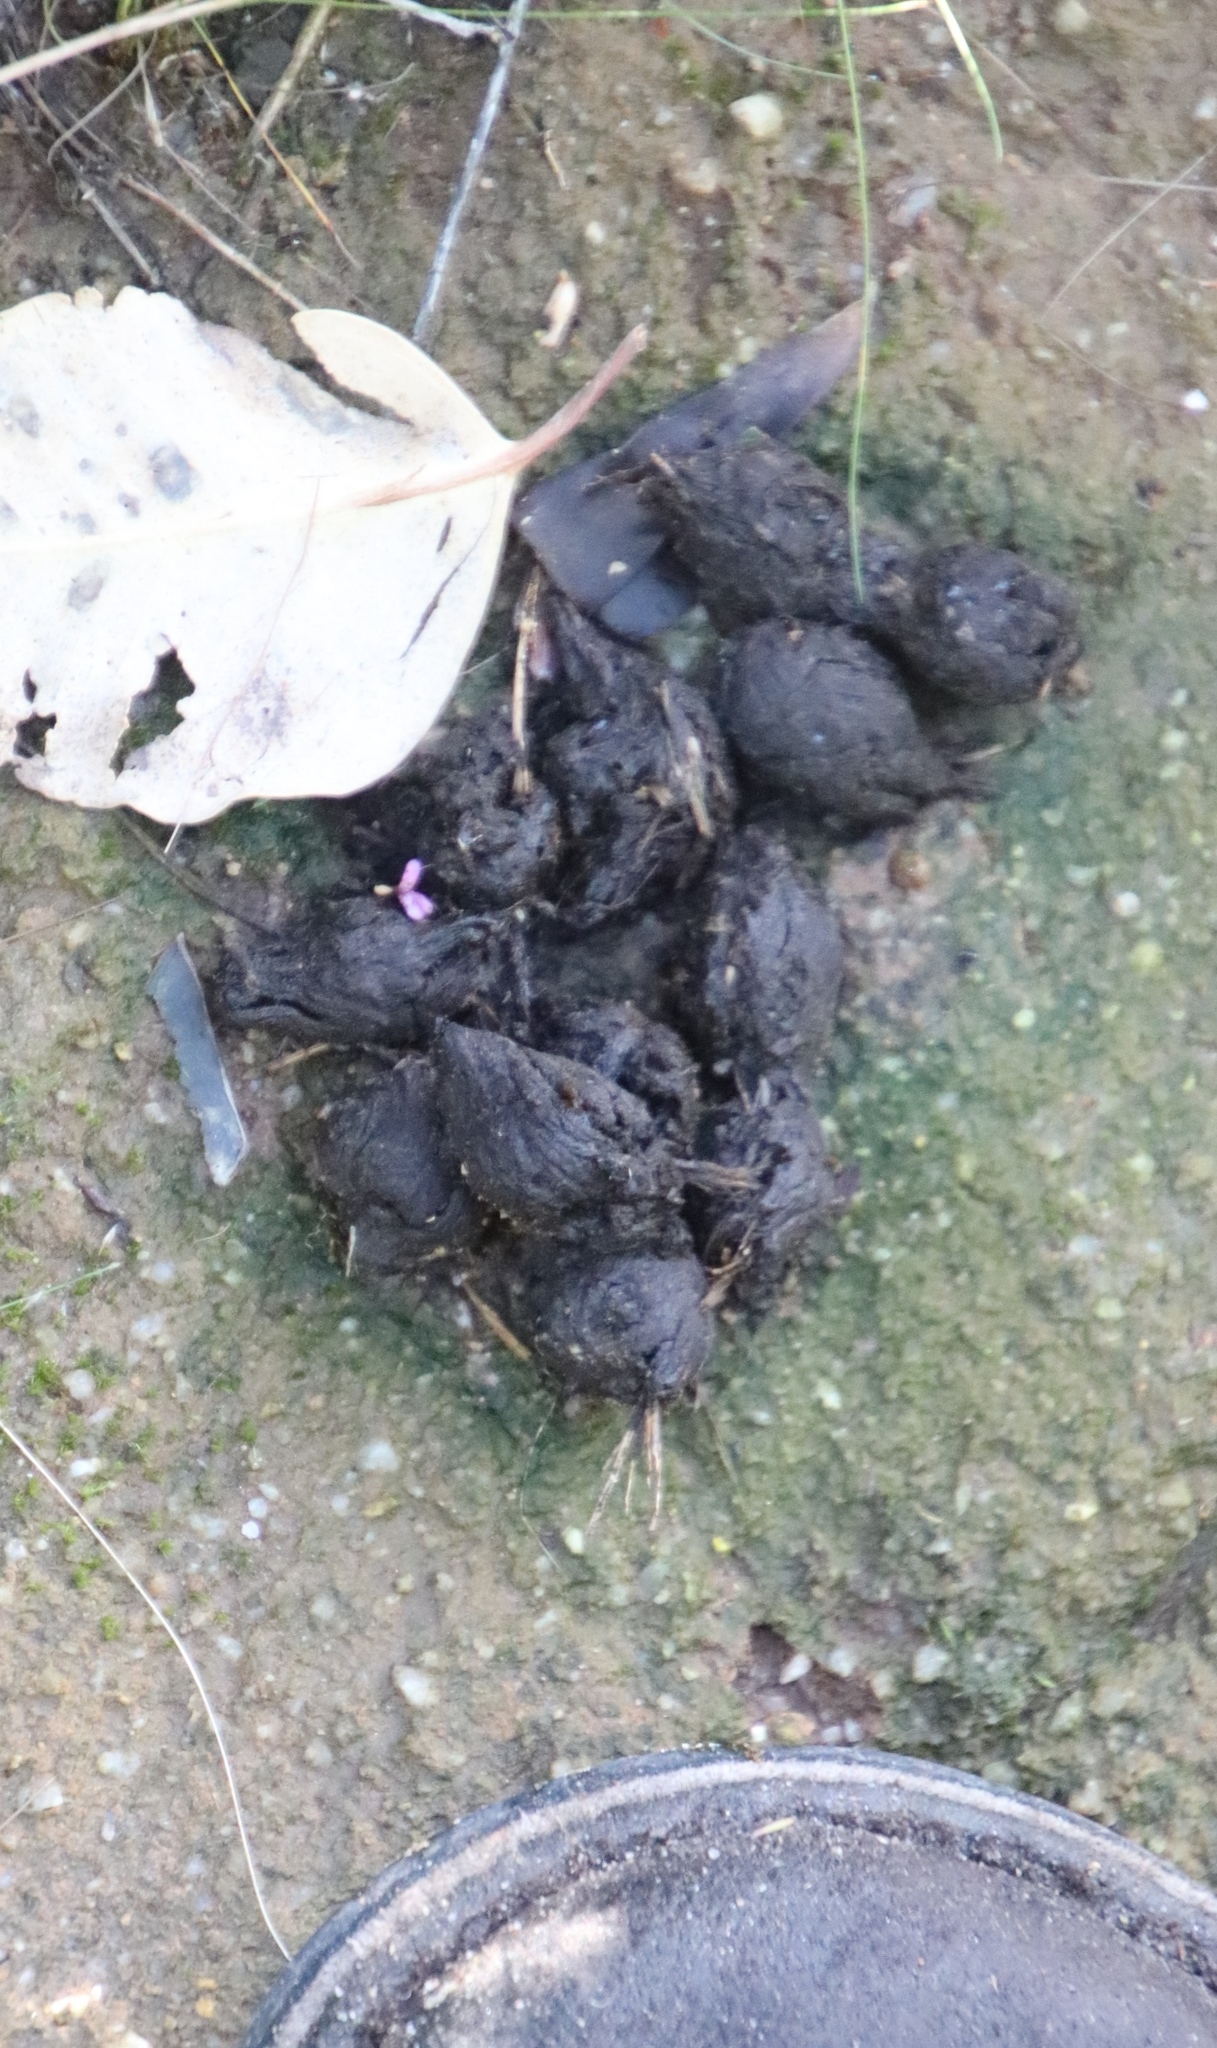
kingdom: Animalia
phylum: Chordata
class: Mammalia
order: Rodentia
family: Hystricidae
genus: Hystrix
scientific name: Hystrix africaeaustralis
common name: Cape porcupine
